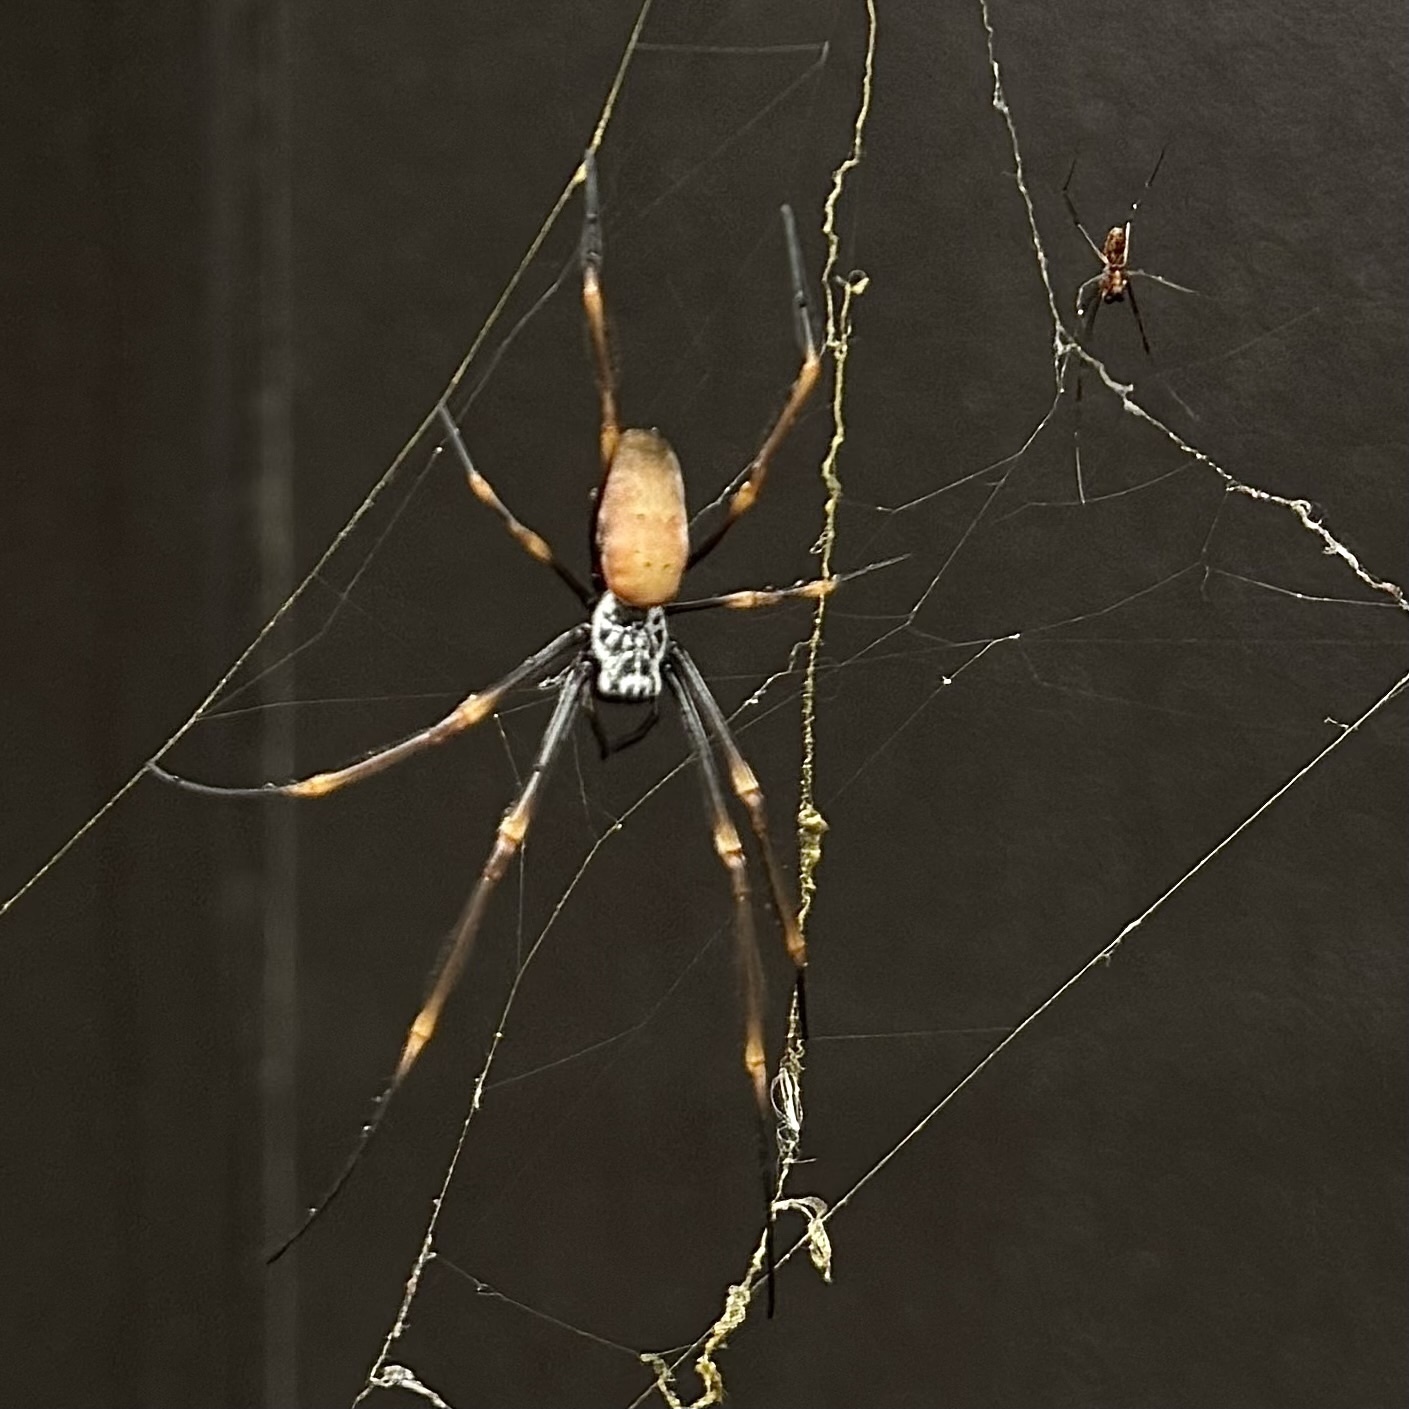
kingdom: Animalia
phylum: Arthropoda
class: Arachnida
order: Araneae
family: Araneidae
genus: Trichonephila
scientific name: Trichonephila plumipes
